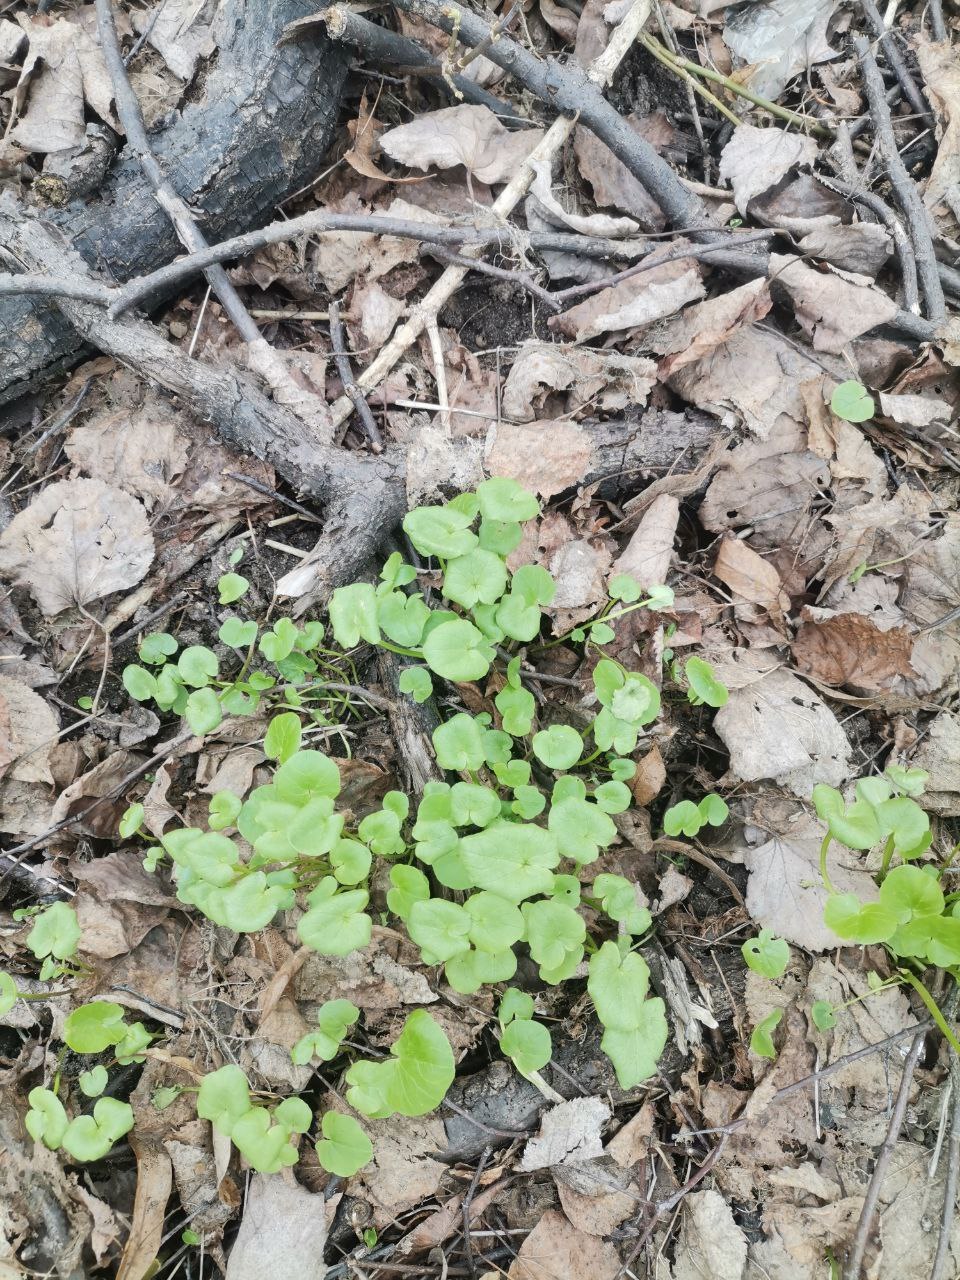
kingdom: Plantae
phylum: Tracheophyta
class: Magnoliopsida
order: Ranunculales
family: Ranunculaceae
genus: Ficaria
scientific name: Ficaria verna
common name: Lesser celandine
